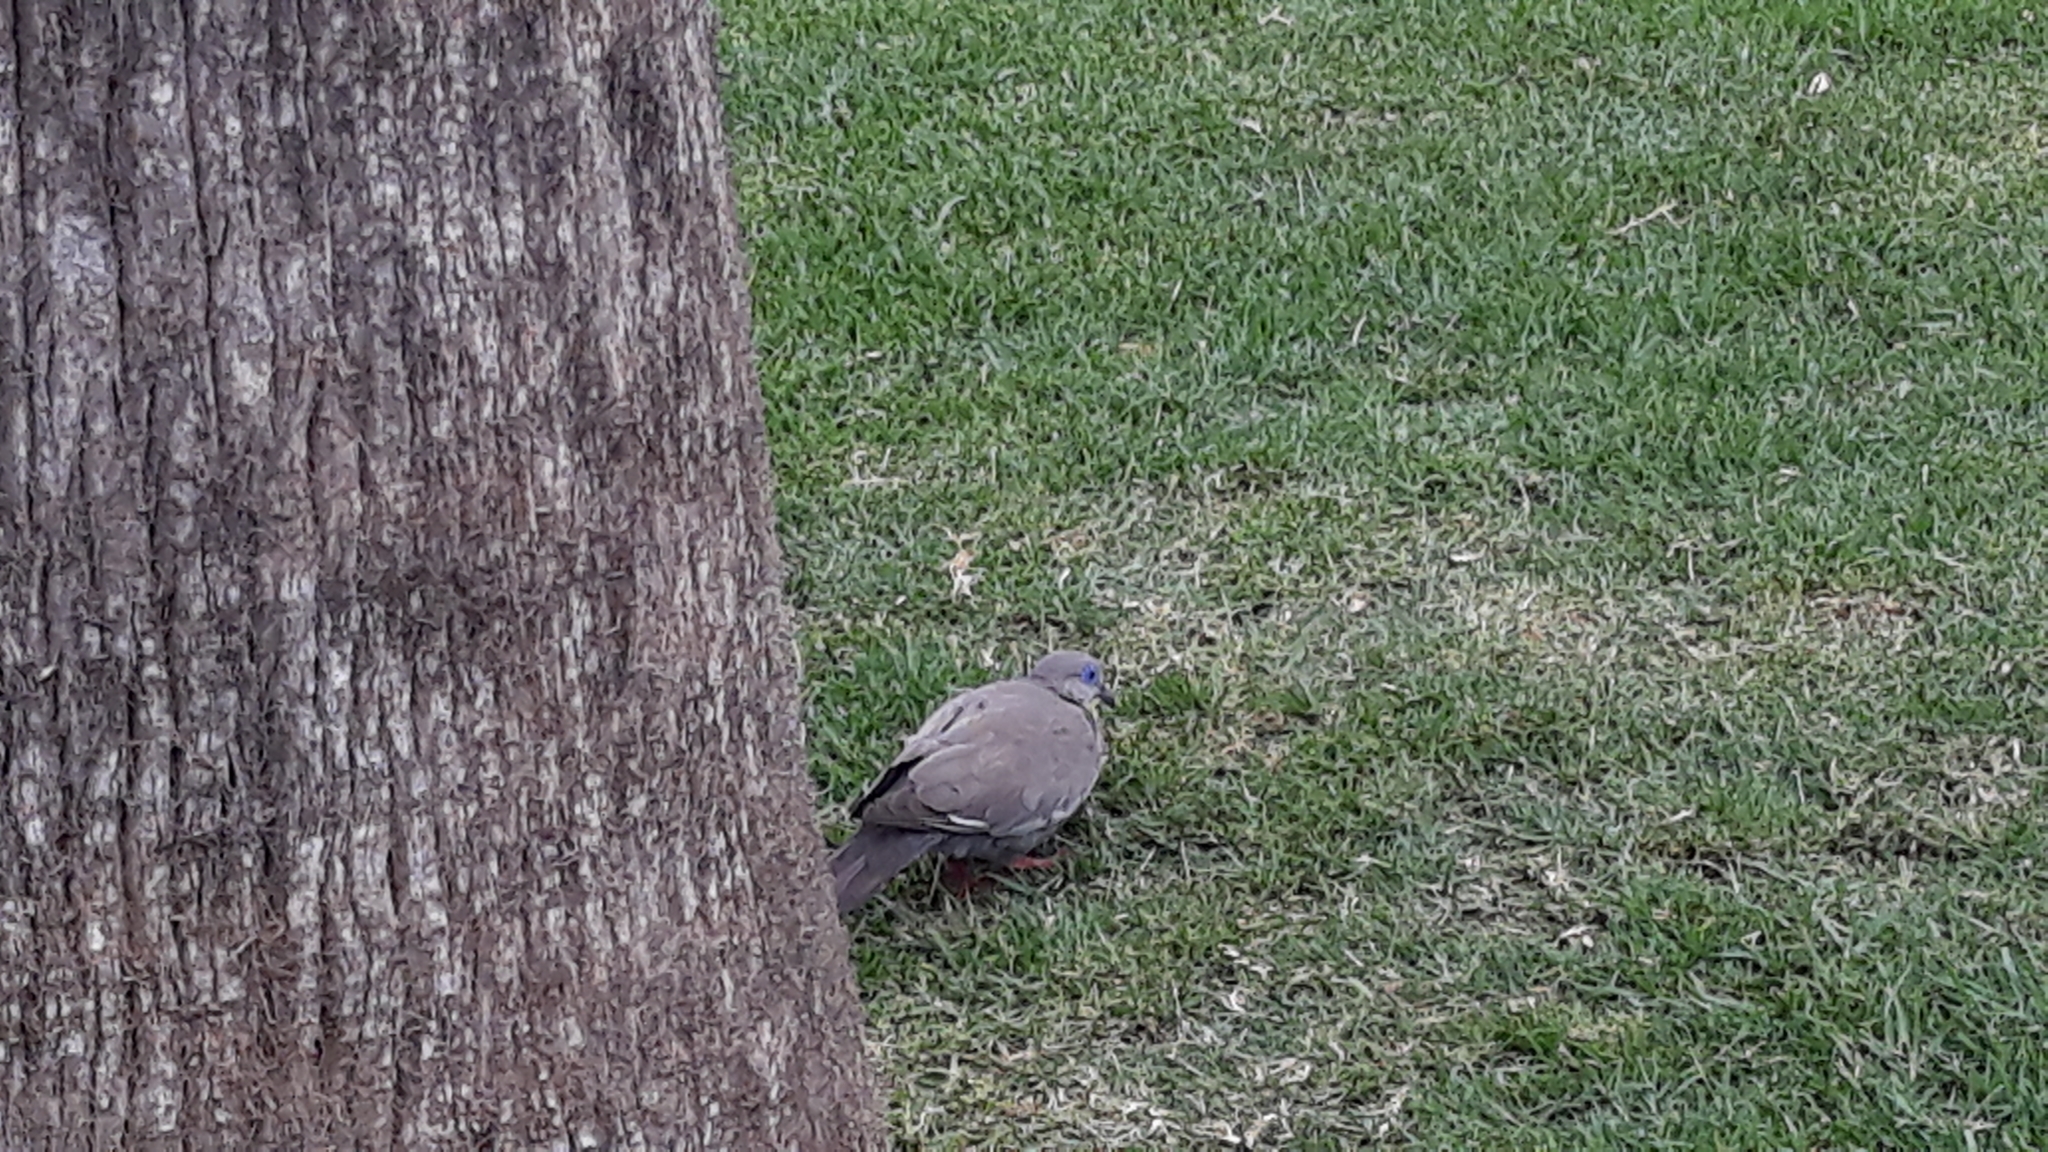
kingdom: Animalia
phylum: Chordata
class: Aves
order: Columbiformes
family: Columbidae
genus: Zenaida
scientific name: Zenaida meloda
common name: West peruvian dove
